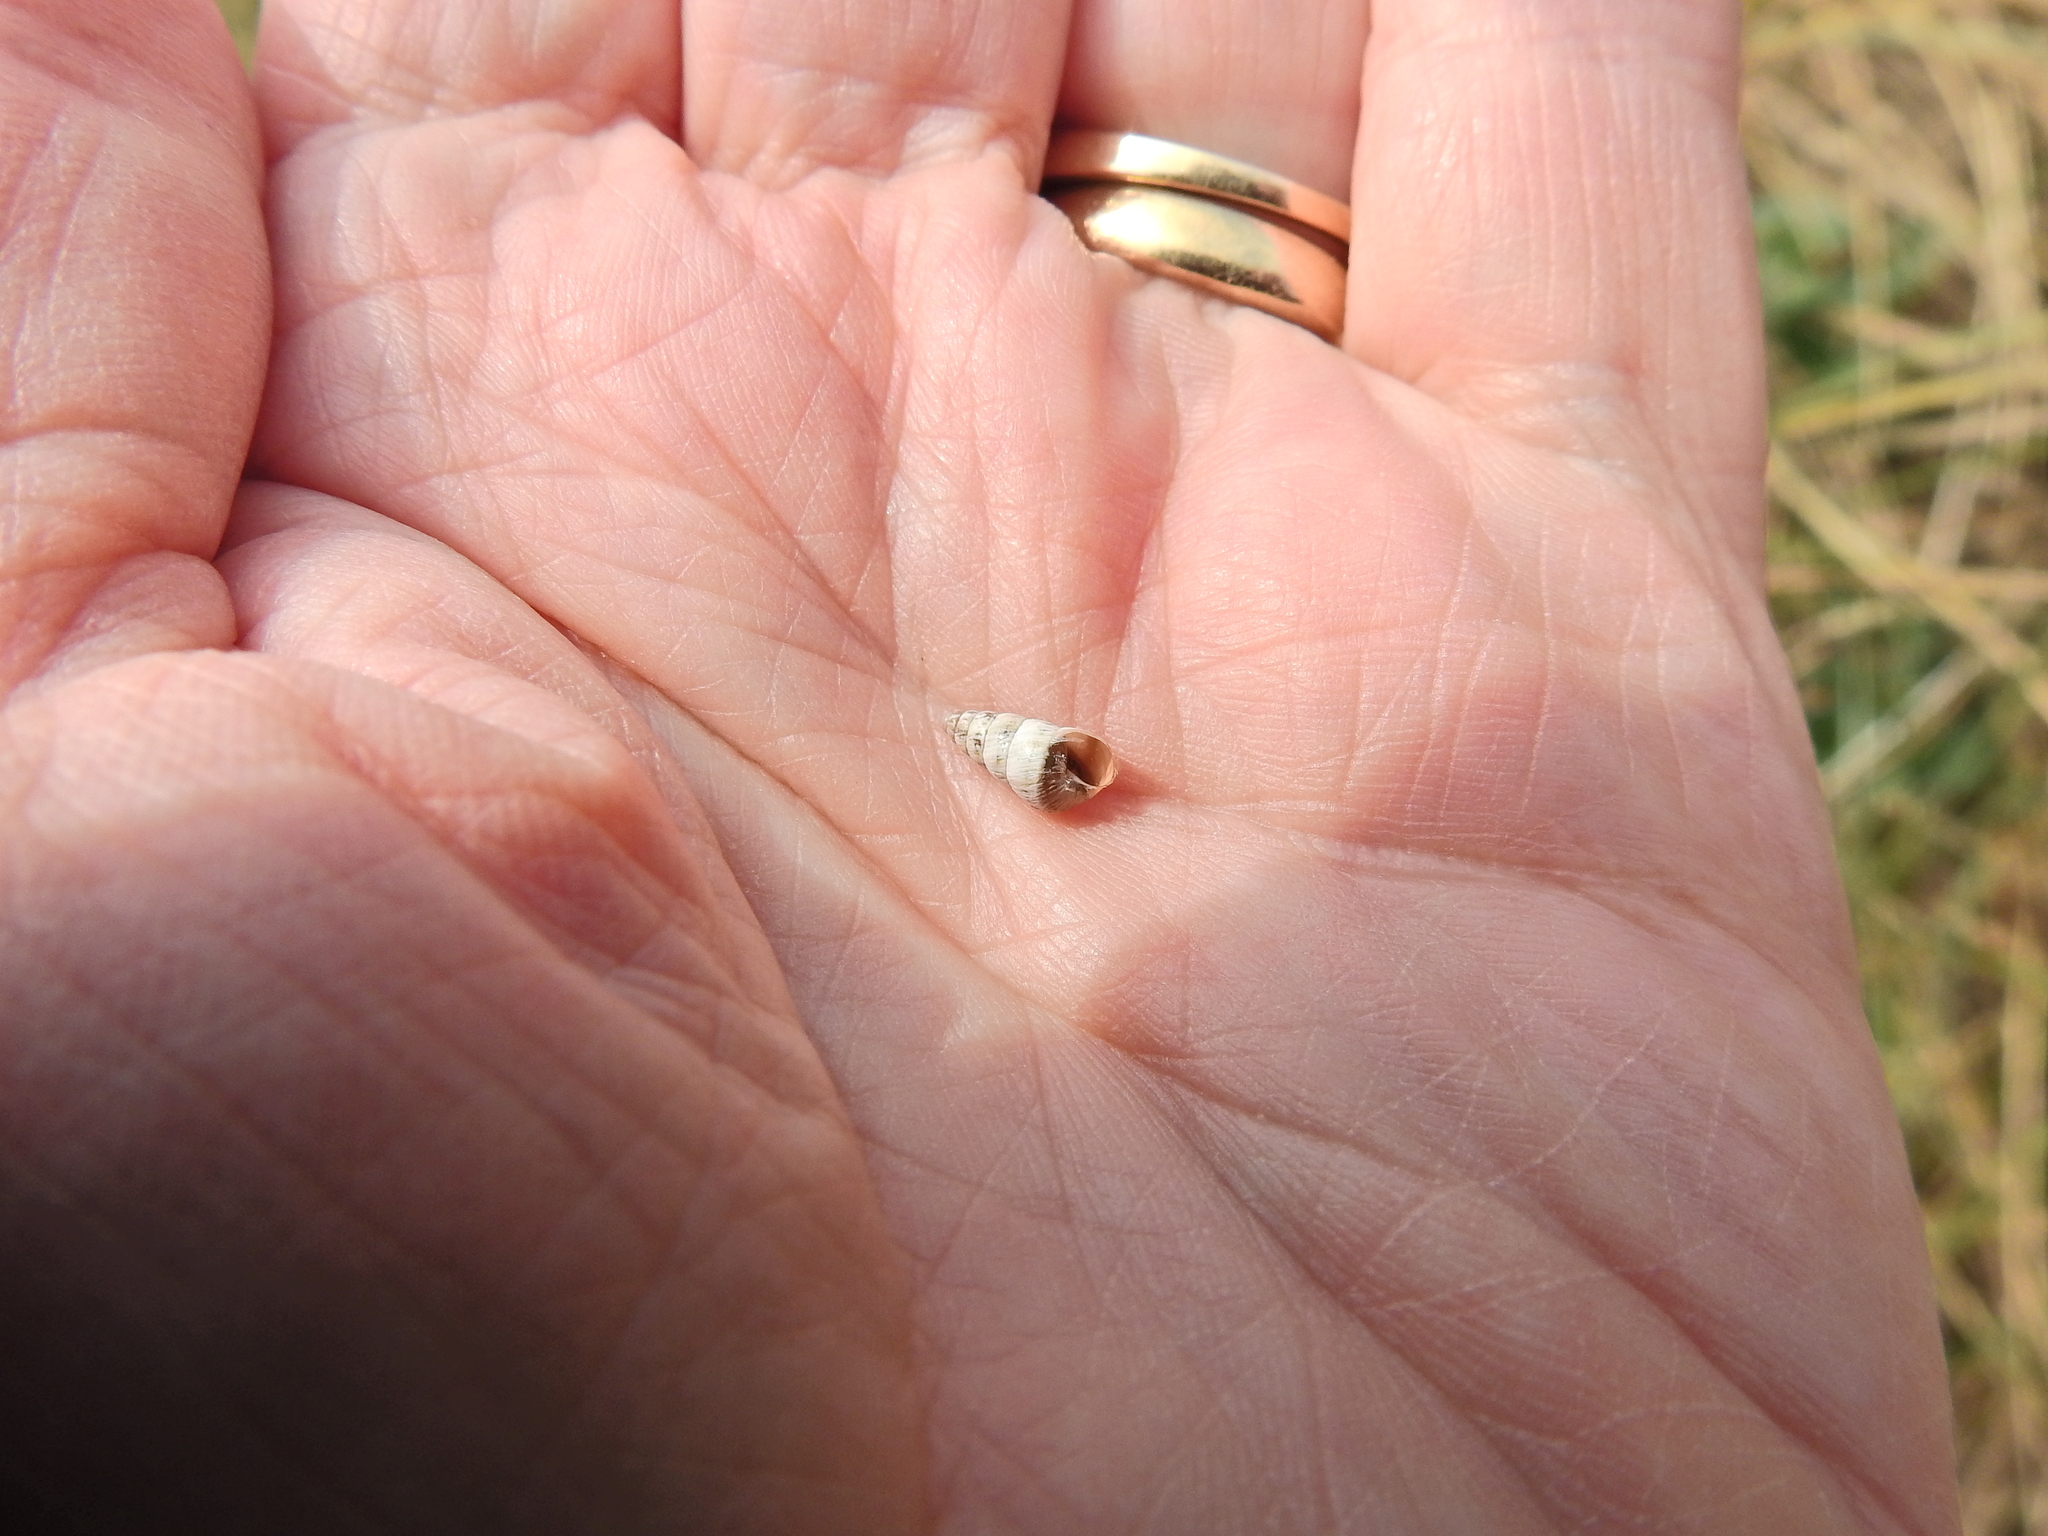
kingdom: Animalia
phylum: Mollusca
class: Gastropoda
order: Stylommatophora
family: Geomitridae
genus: Cochlicella
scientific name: Cochlicella acuta
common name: Pointed snail
